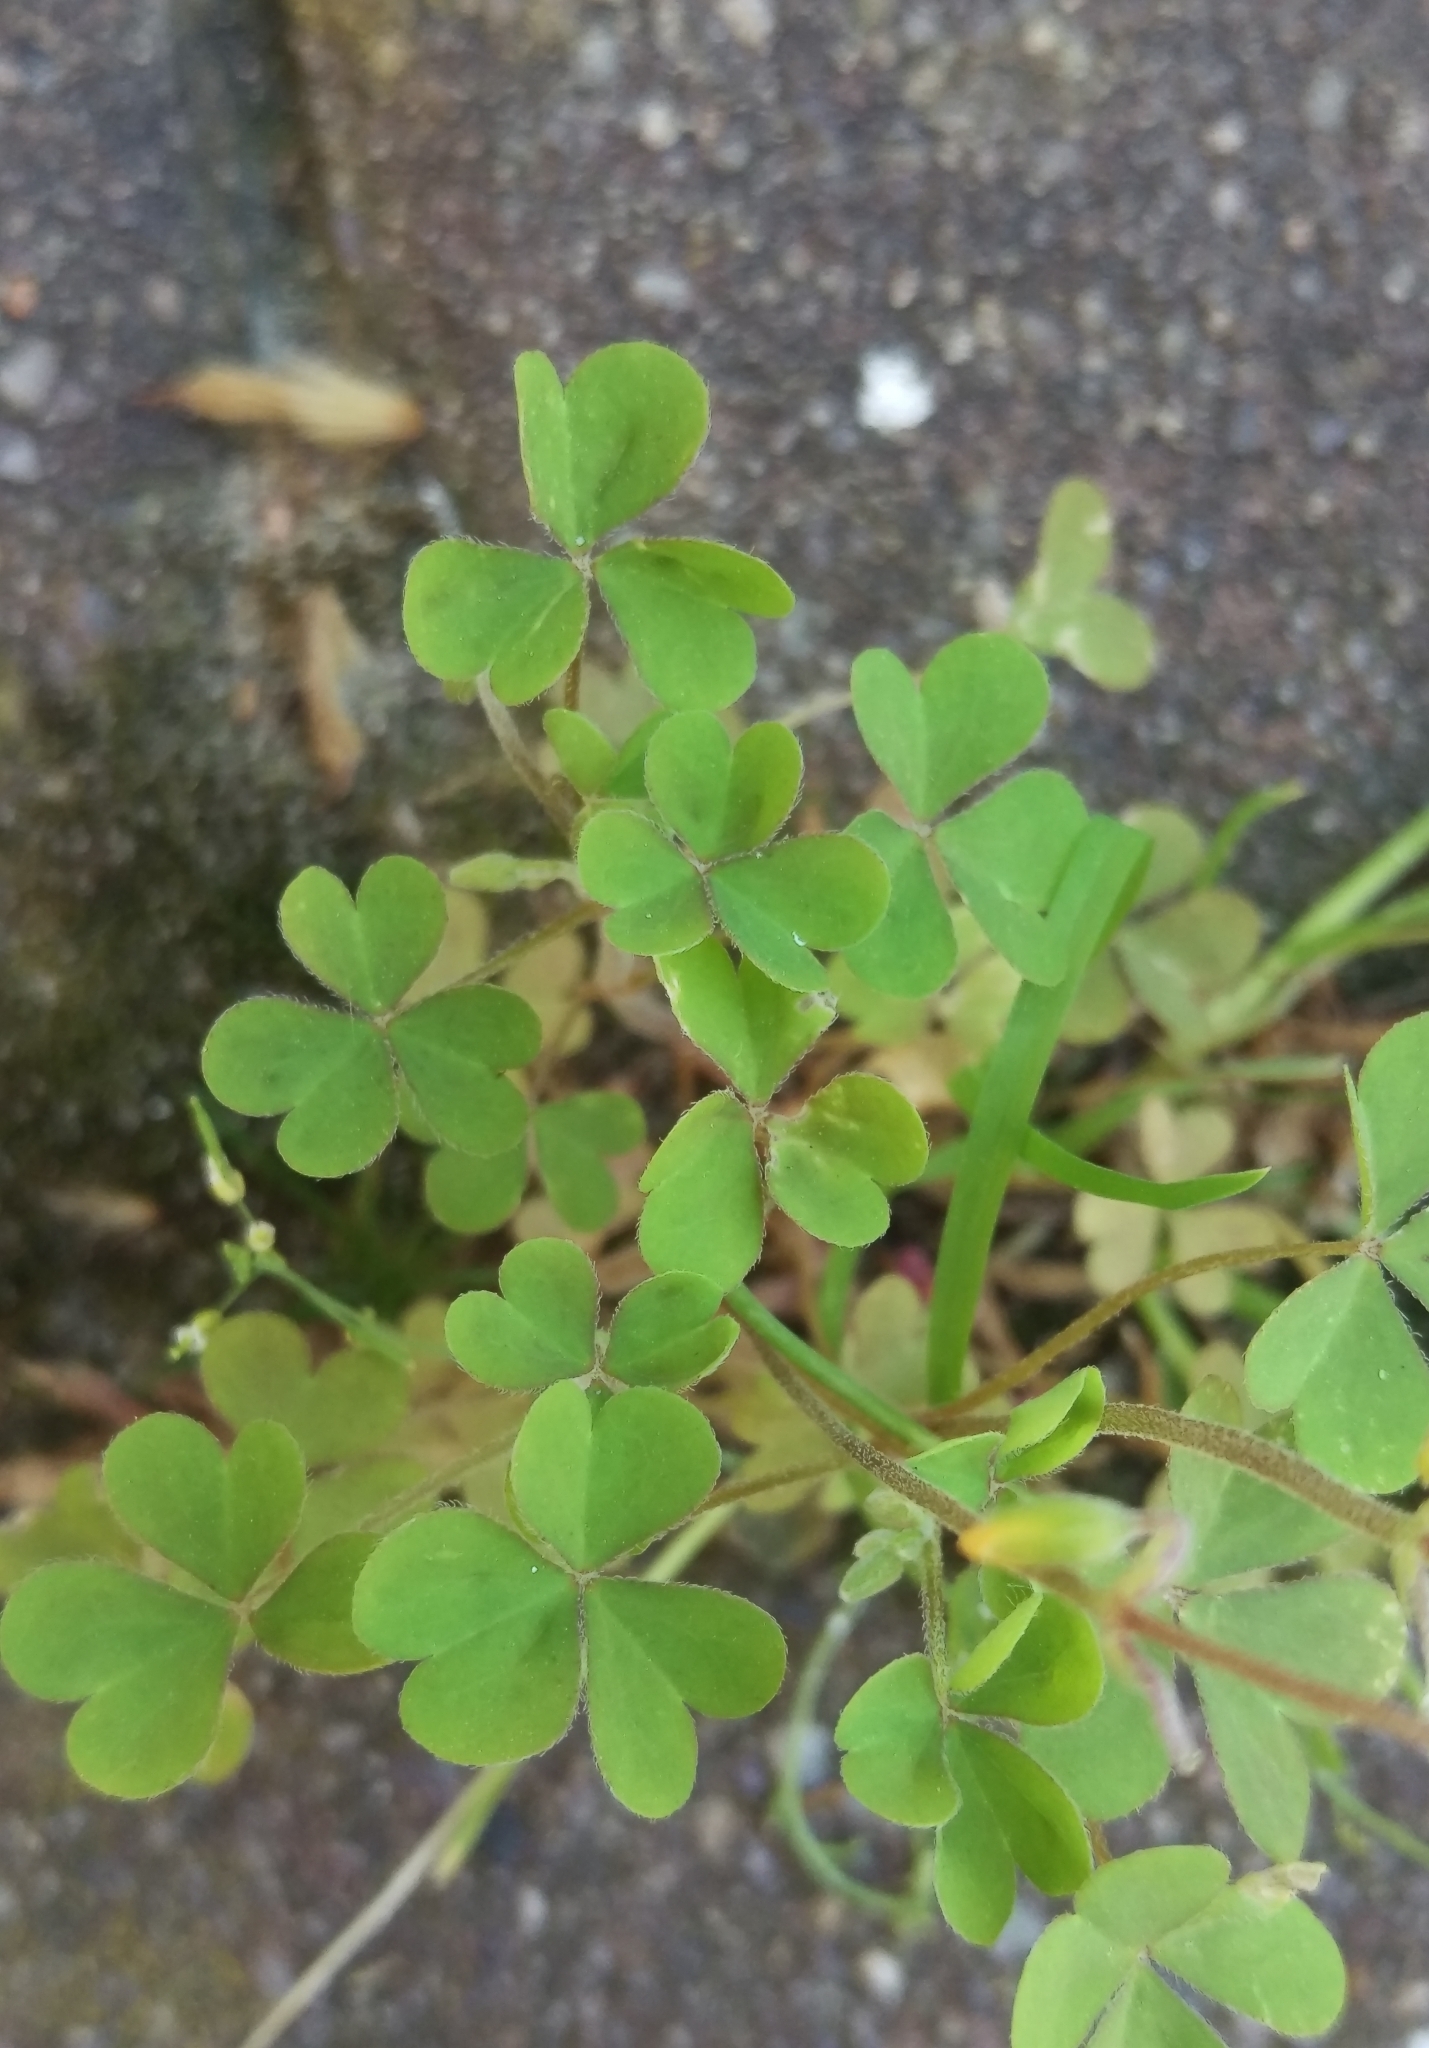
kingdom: Plantae
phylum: Tracheophyta
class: Magnoliopsida
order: Oxalidales
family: Oxalidaceae
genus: Oxalis
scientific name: Oxalis corniculata
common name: Procumbent yellow-sorrel
